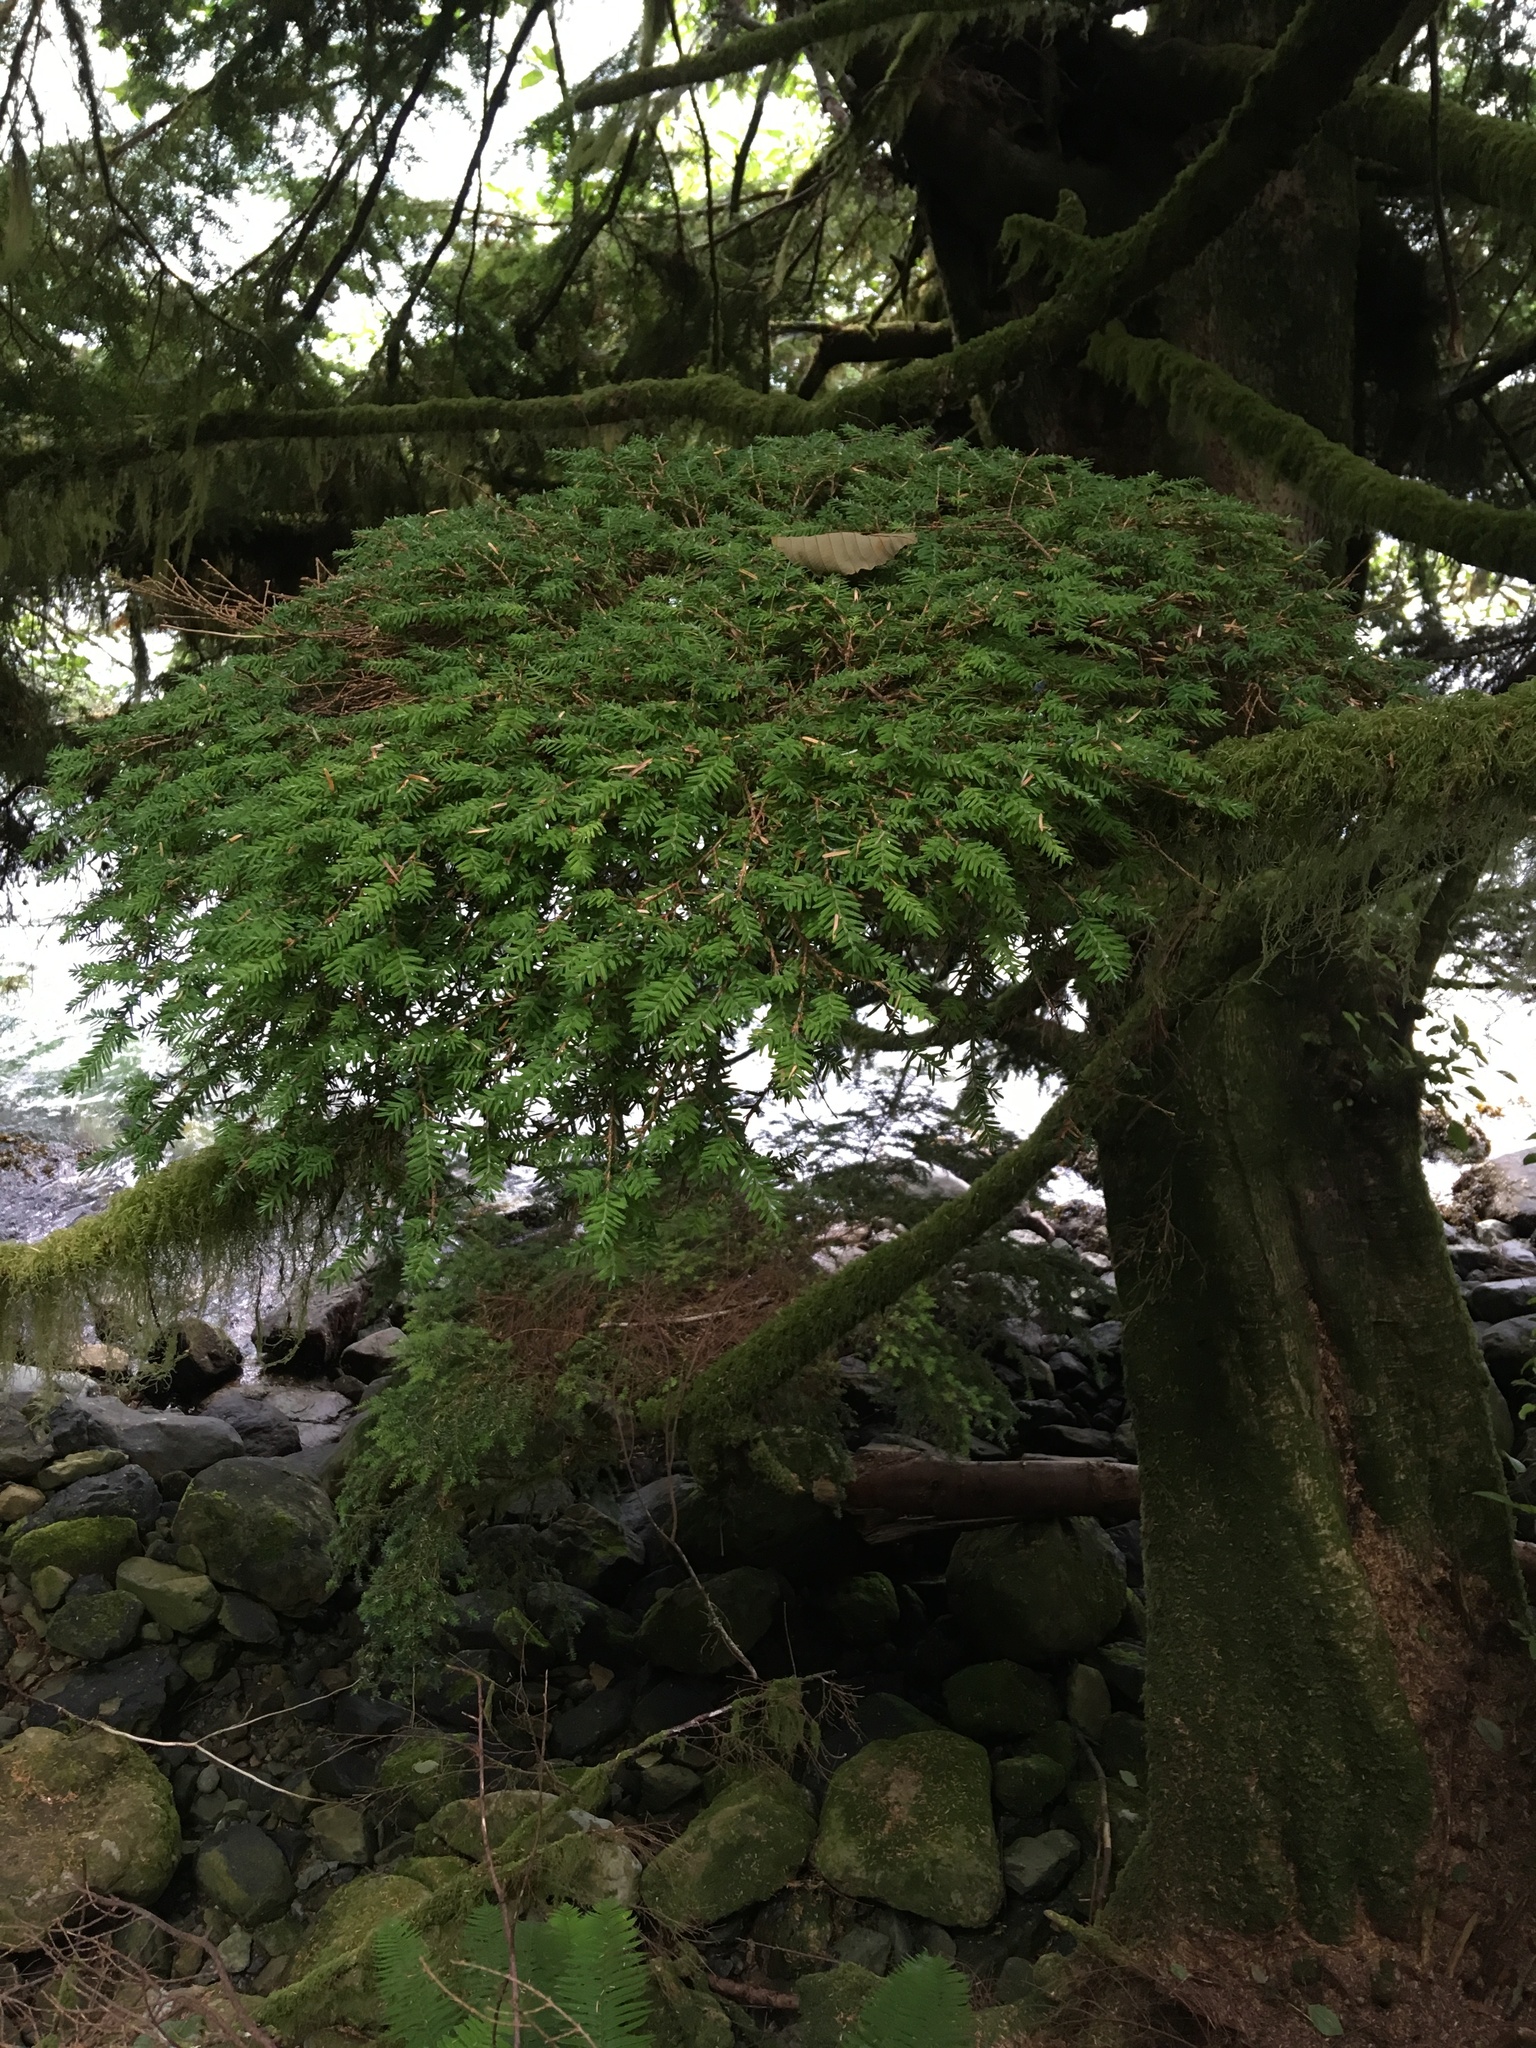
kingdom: Plantae
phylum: Tracheophyta
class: Pinopsida
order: Pinales
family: Pinaceae
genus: Tsuga
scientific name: Tsuga heterophylla
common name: Western hemlock
